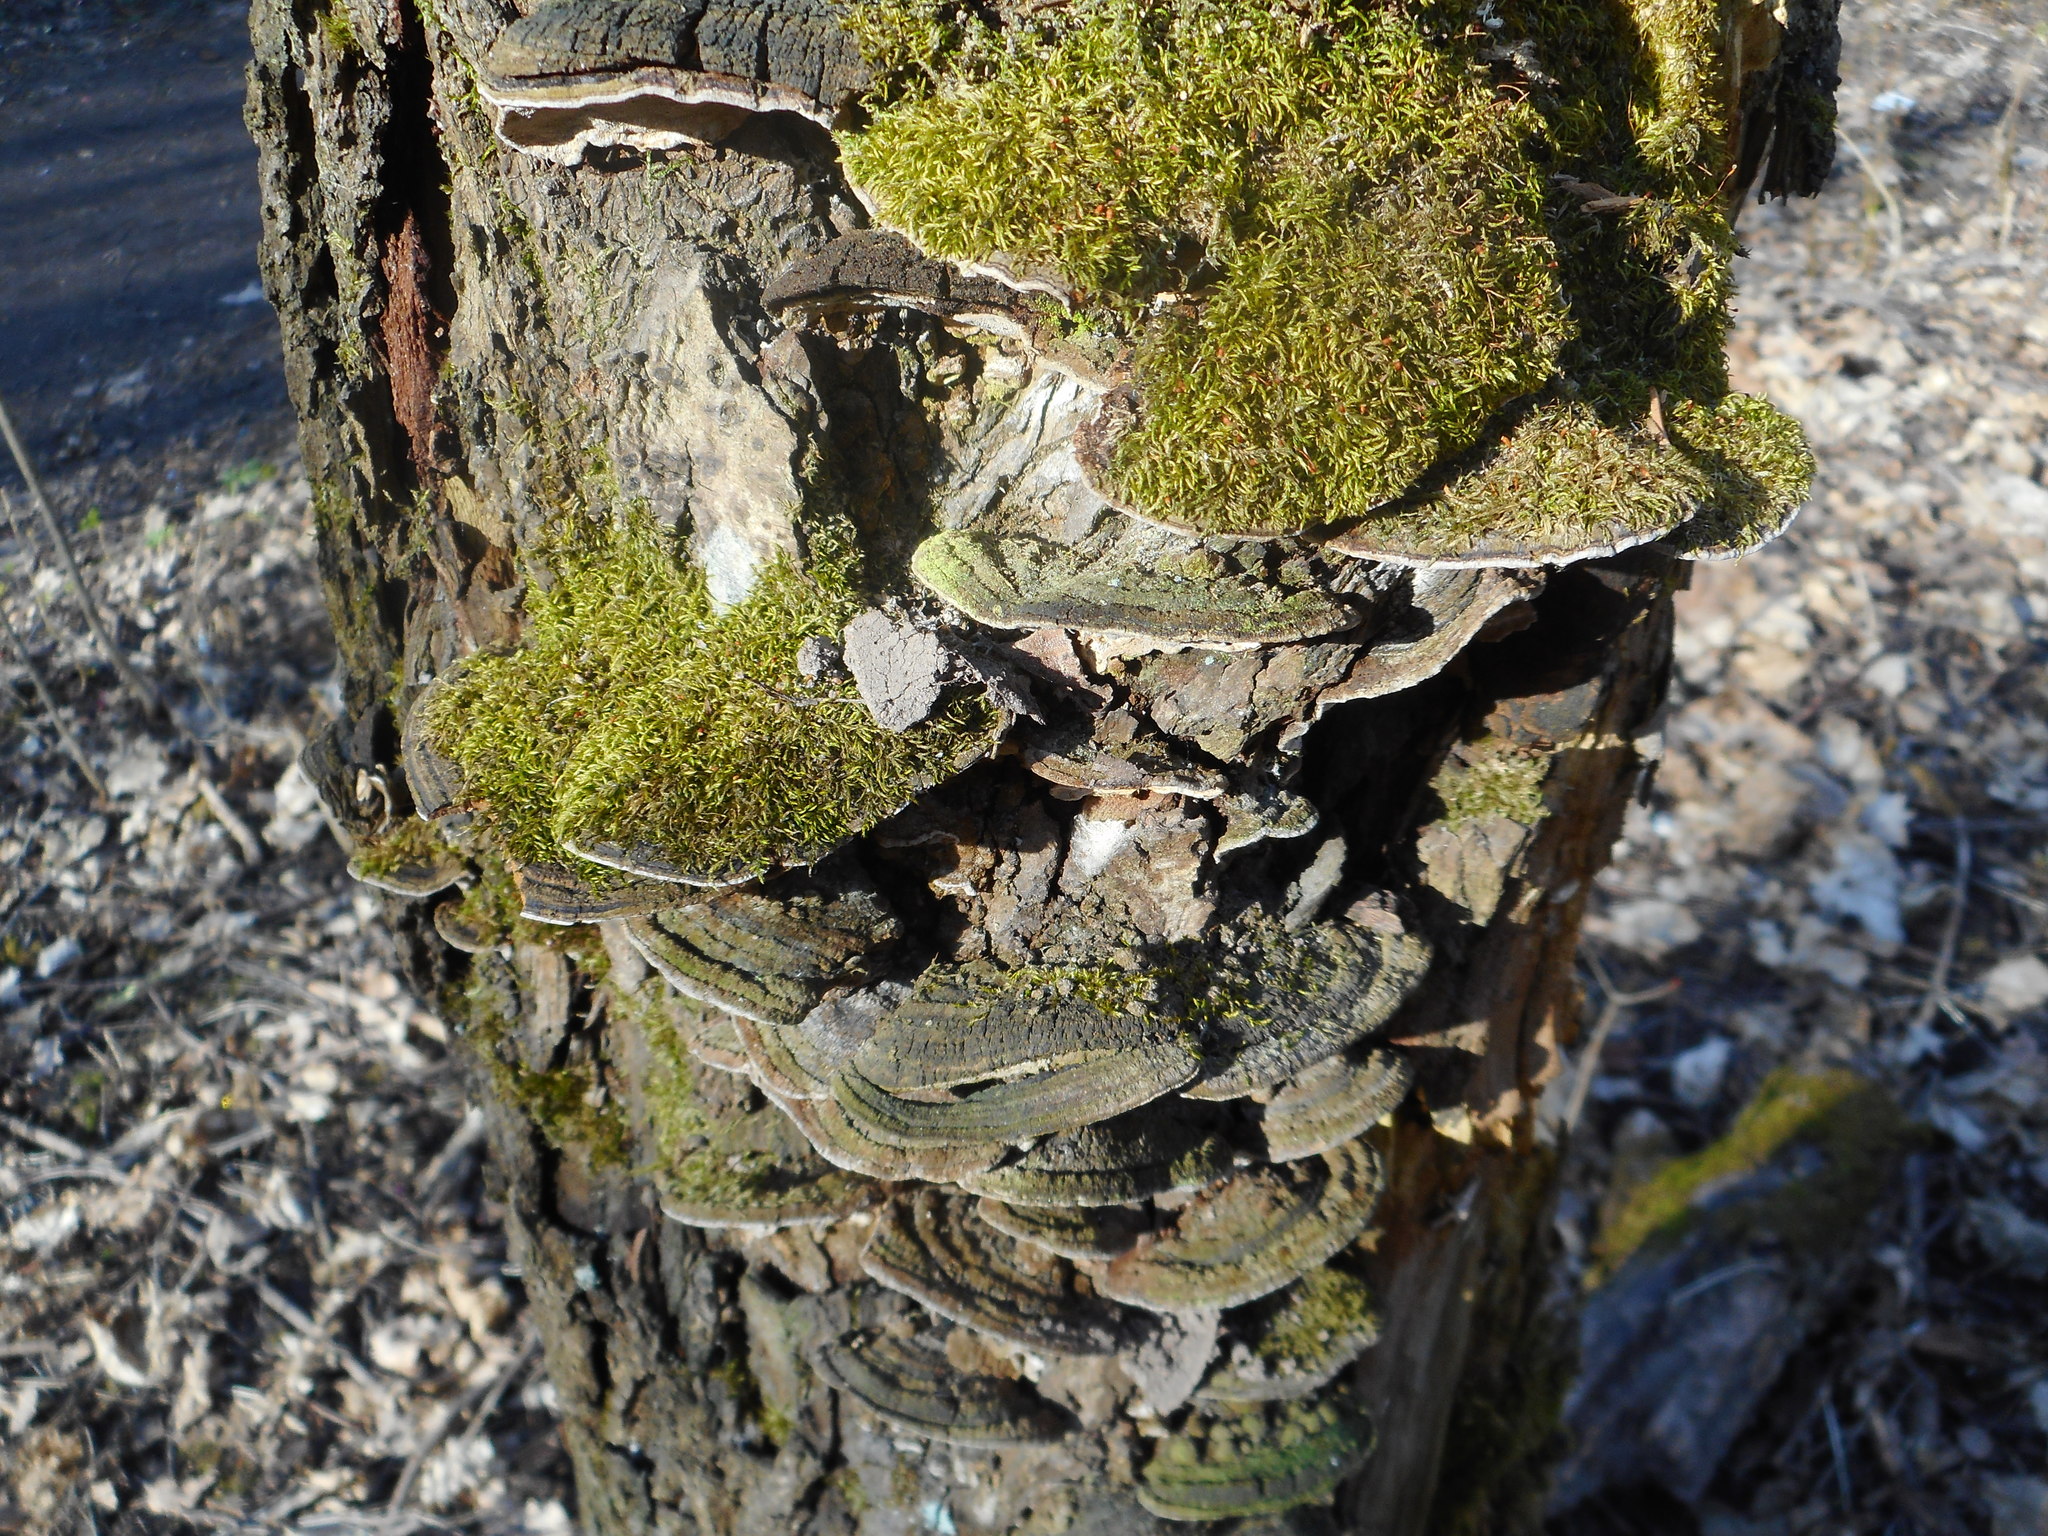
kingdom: Fungi
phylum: Basidiomycota
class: Agaricomycetes
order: Hymenochaetales
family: Hymenochaetaceae
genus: Phellinopsis
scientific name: Phellinopsis conchata
